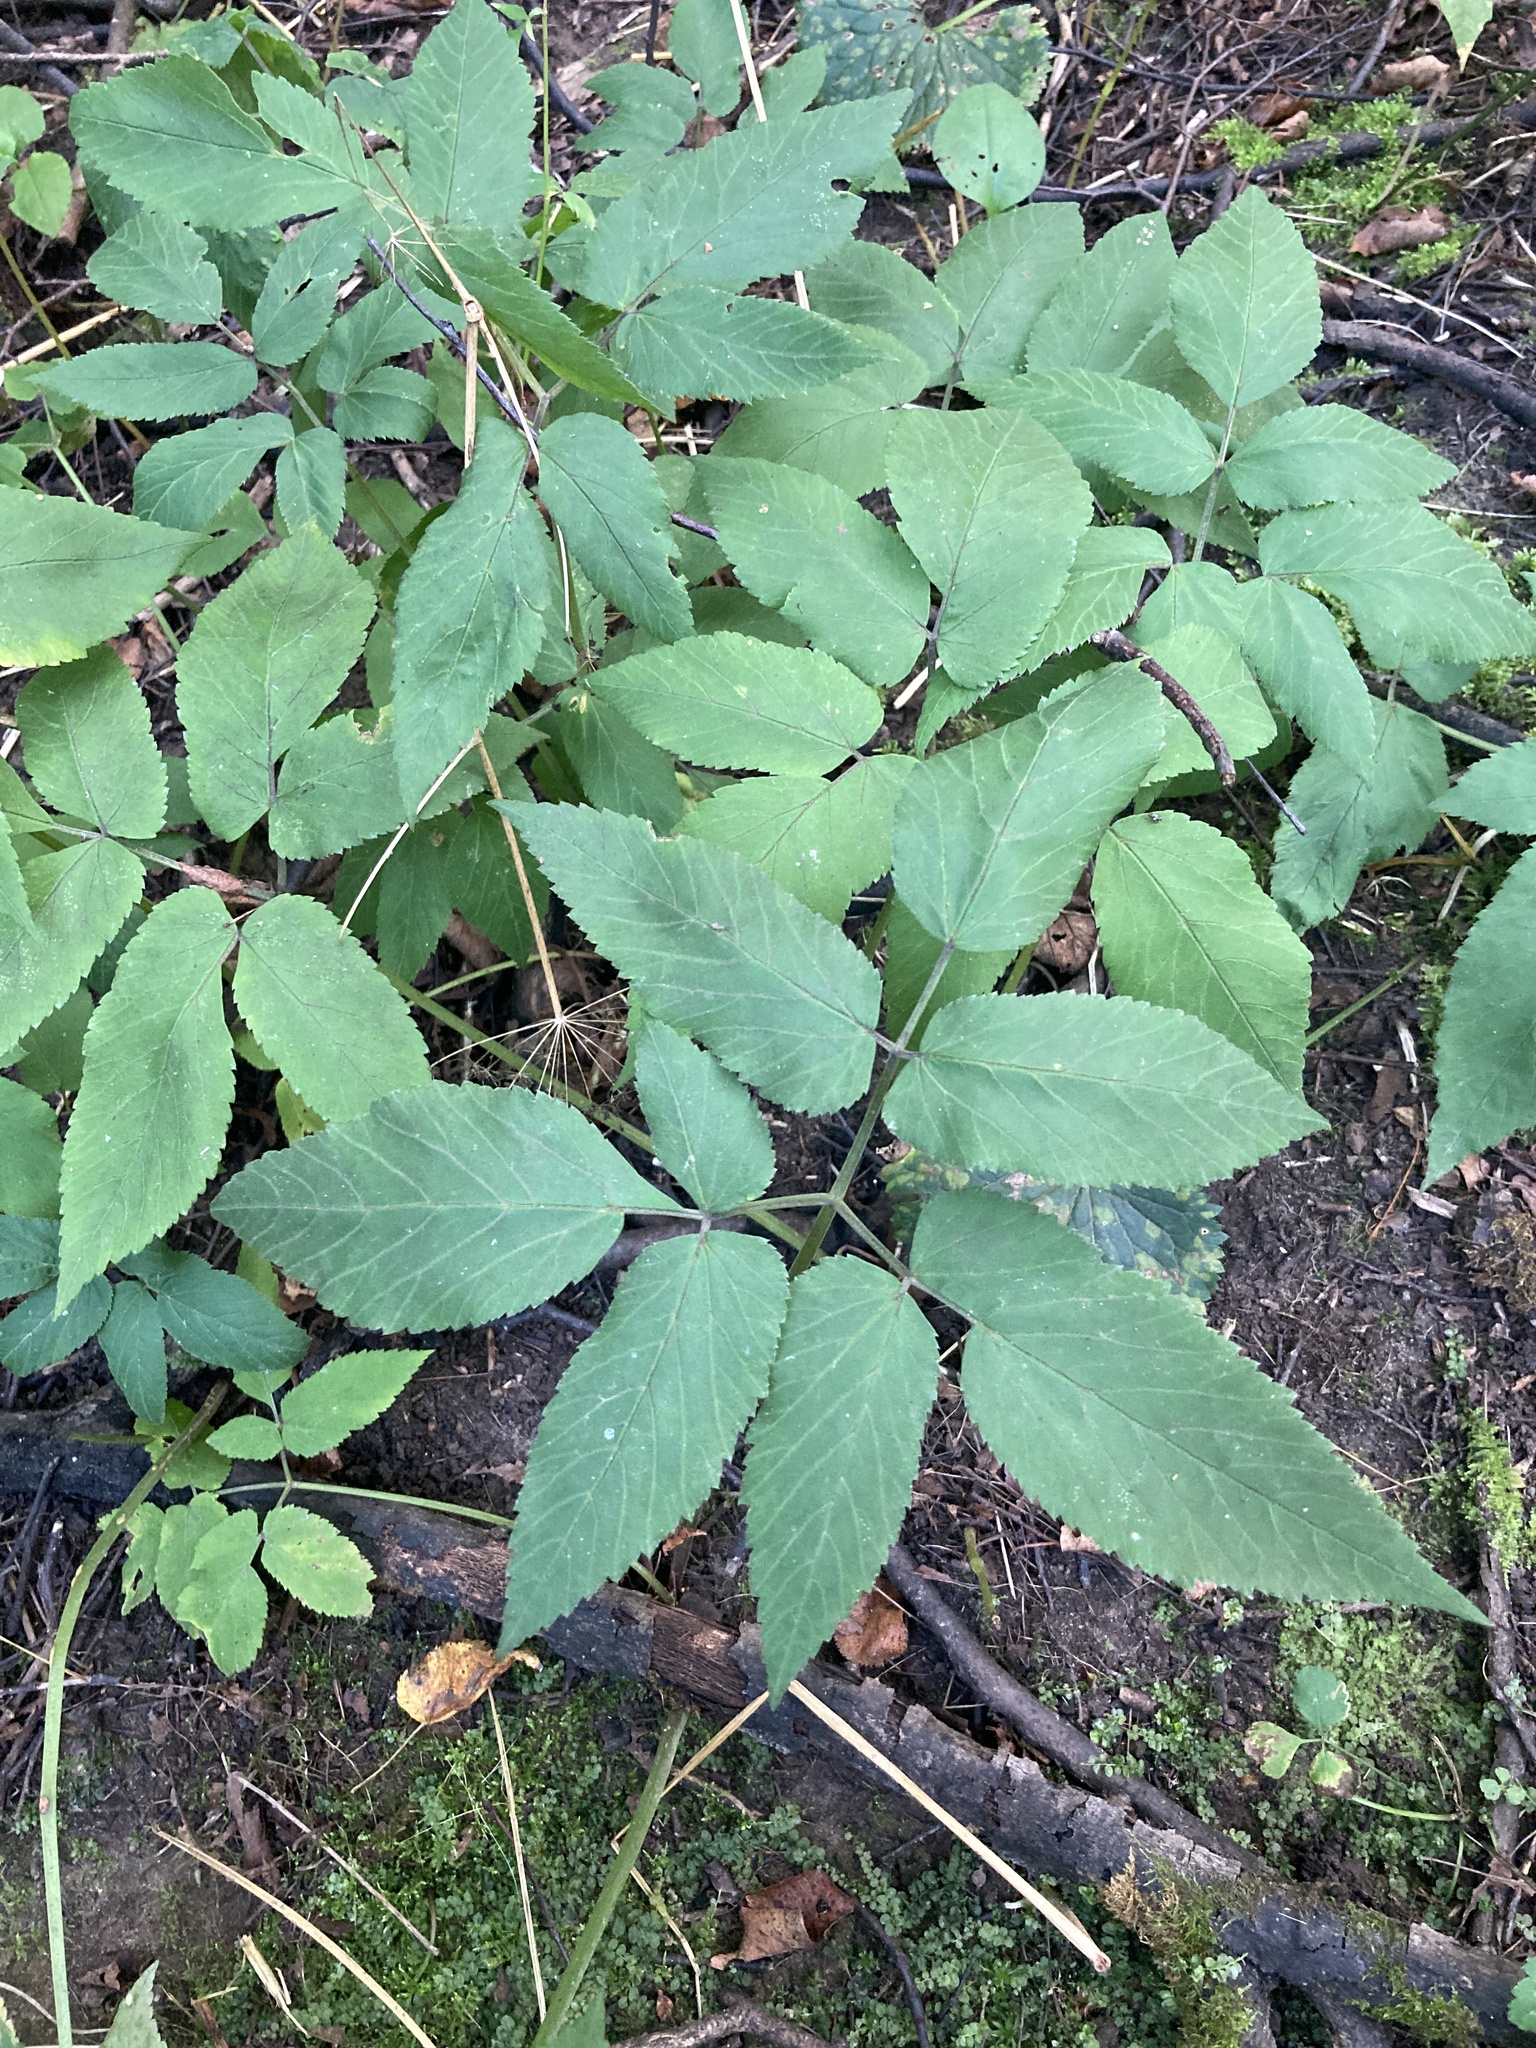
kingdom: Plantae
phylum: Tracheophyta
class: Magnoliopsida
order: Apiales
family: Apiaceae
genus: Aegopodium
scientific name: Aegopodium podagraria
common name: Ground-elder
